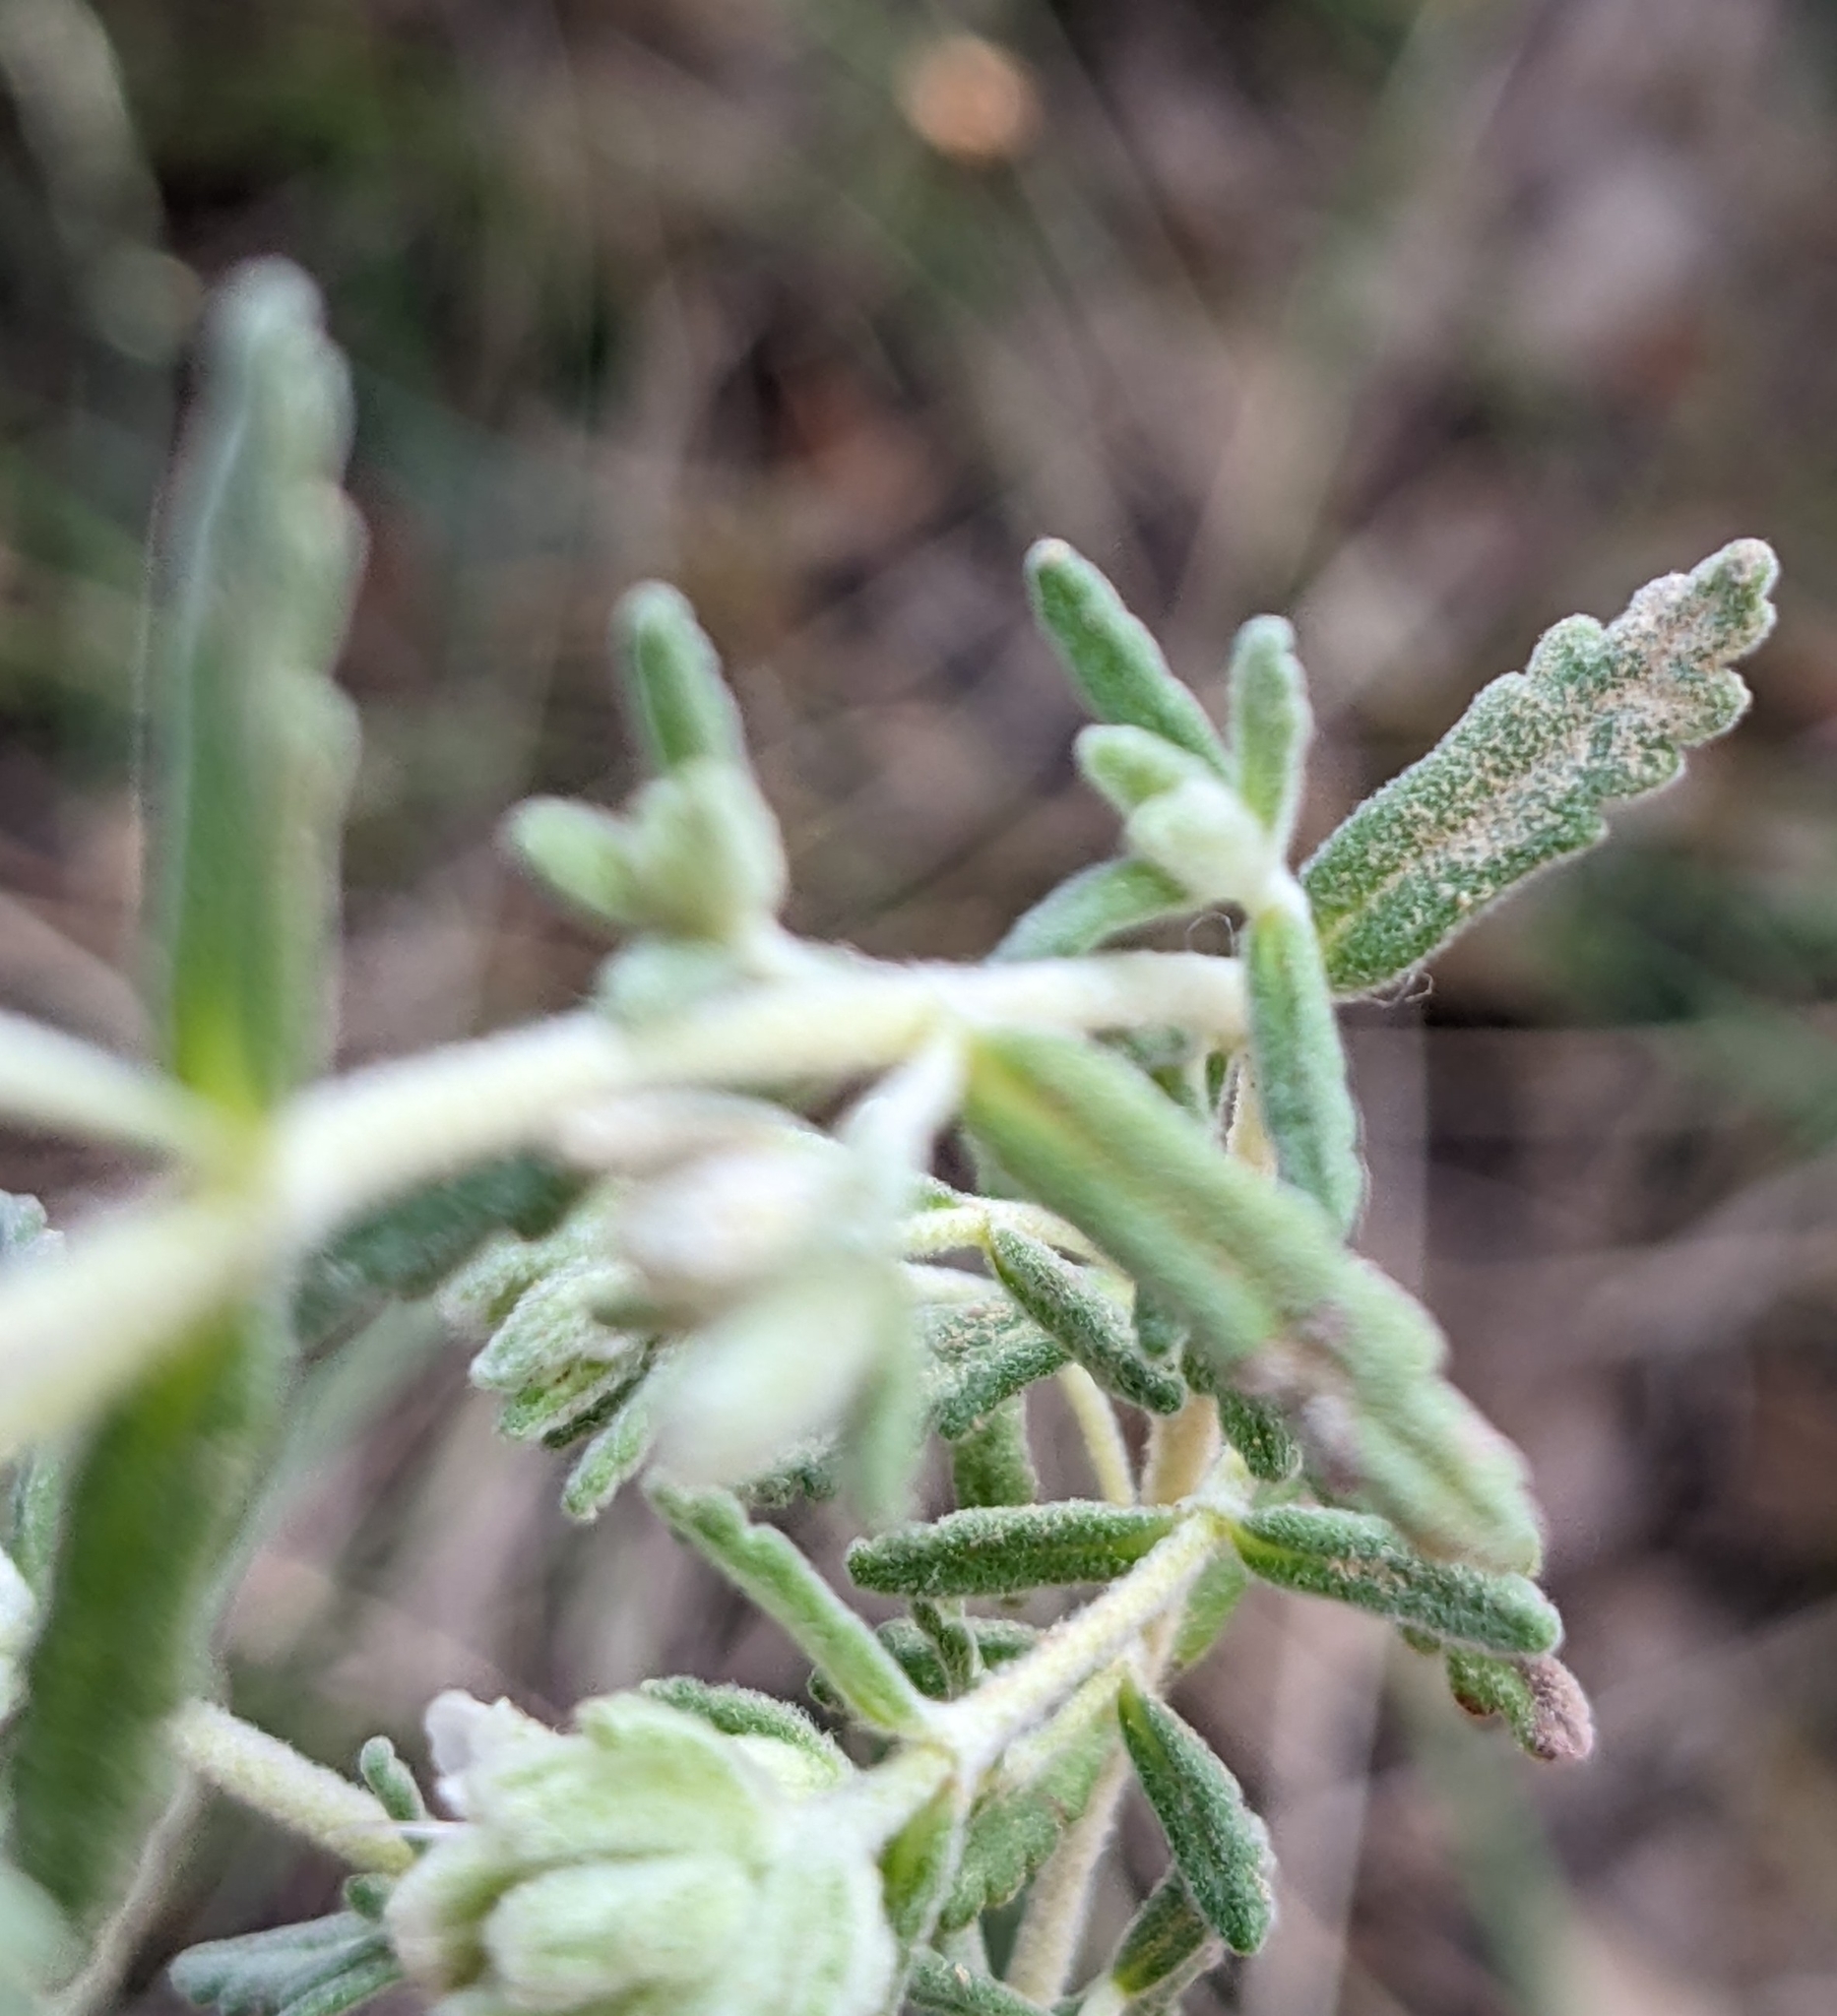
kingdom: Plantae
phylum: Tracheophyta
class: Magnoliopsida
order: Lamiales
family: Lamiaceae
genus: Teucrium
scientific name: Teucrium polium
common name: Poley
